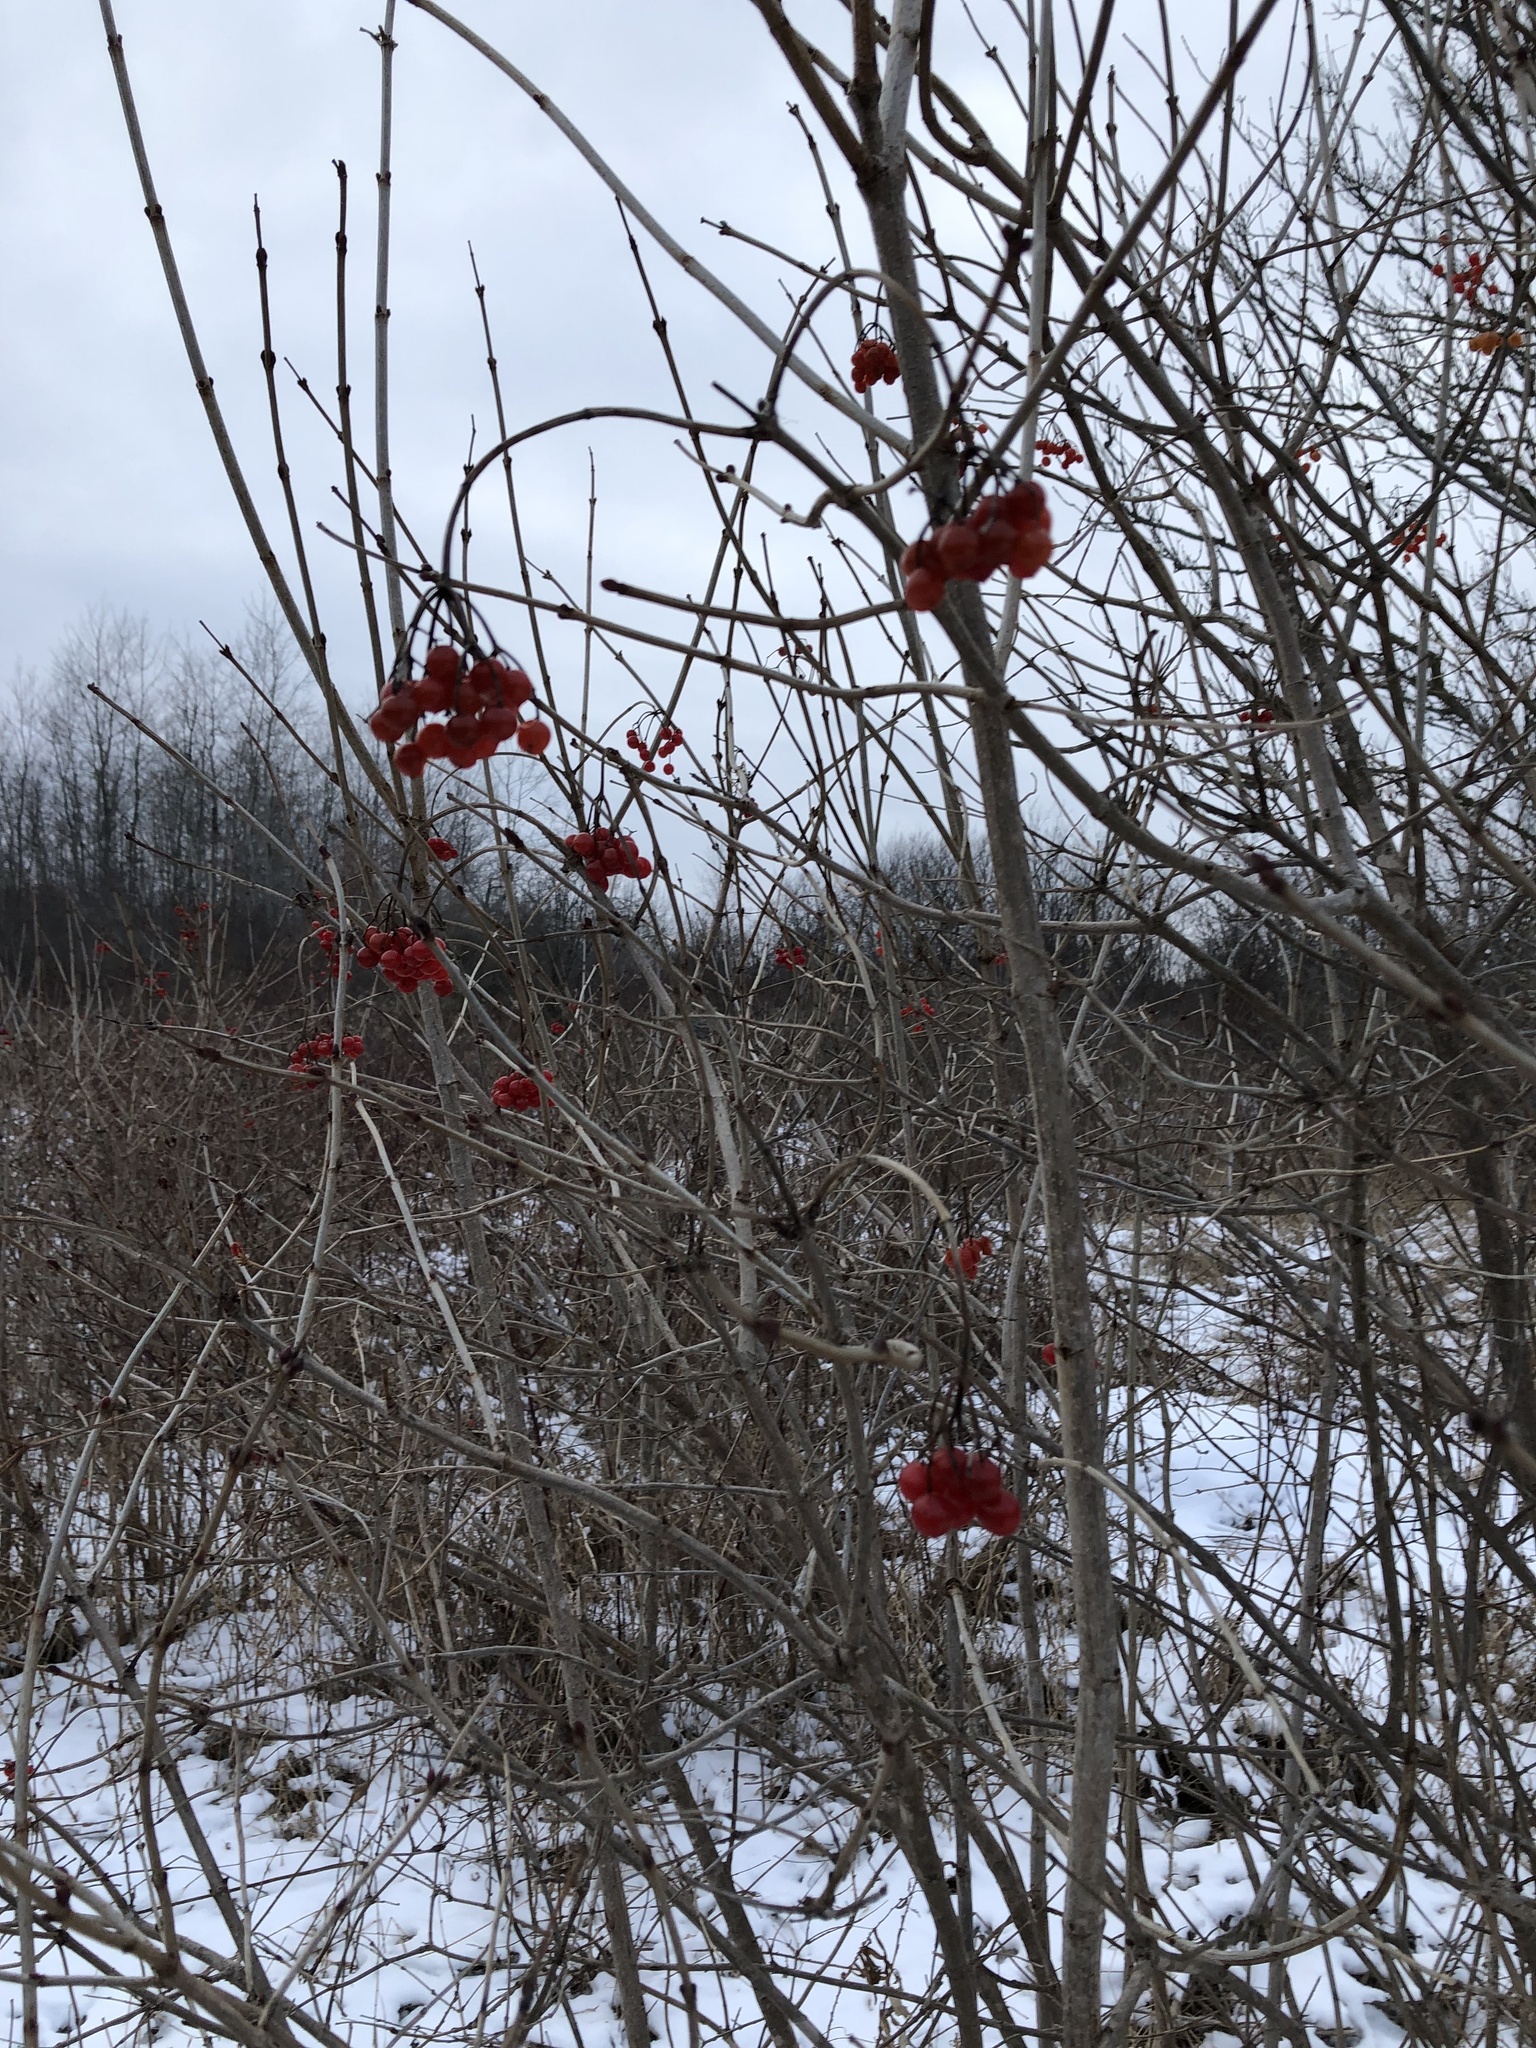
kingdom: Plantae
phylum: Tracheophyta
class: Magnoliopsida
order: Dipsacales
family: Viburnaceae
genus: Viburnum
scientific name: Viburnum opulus
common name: Guelder-rose
